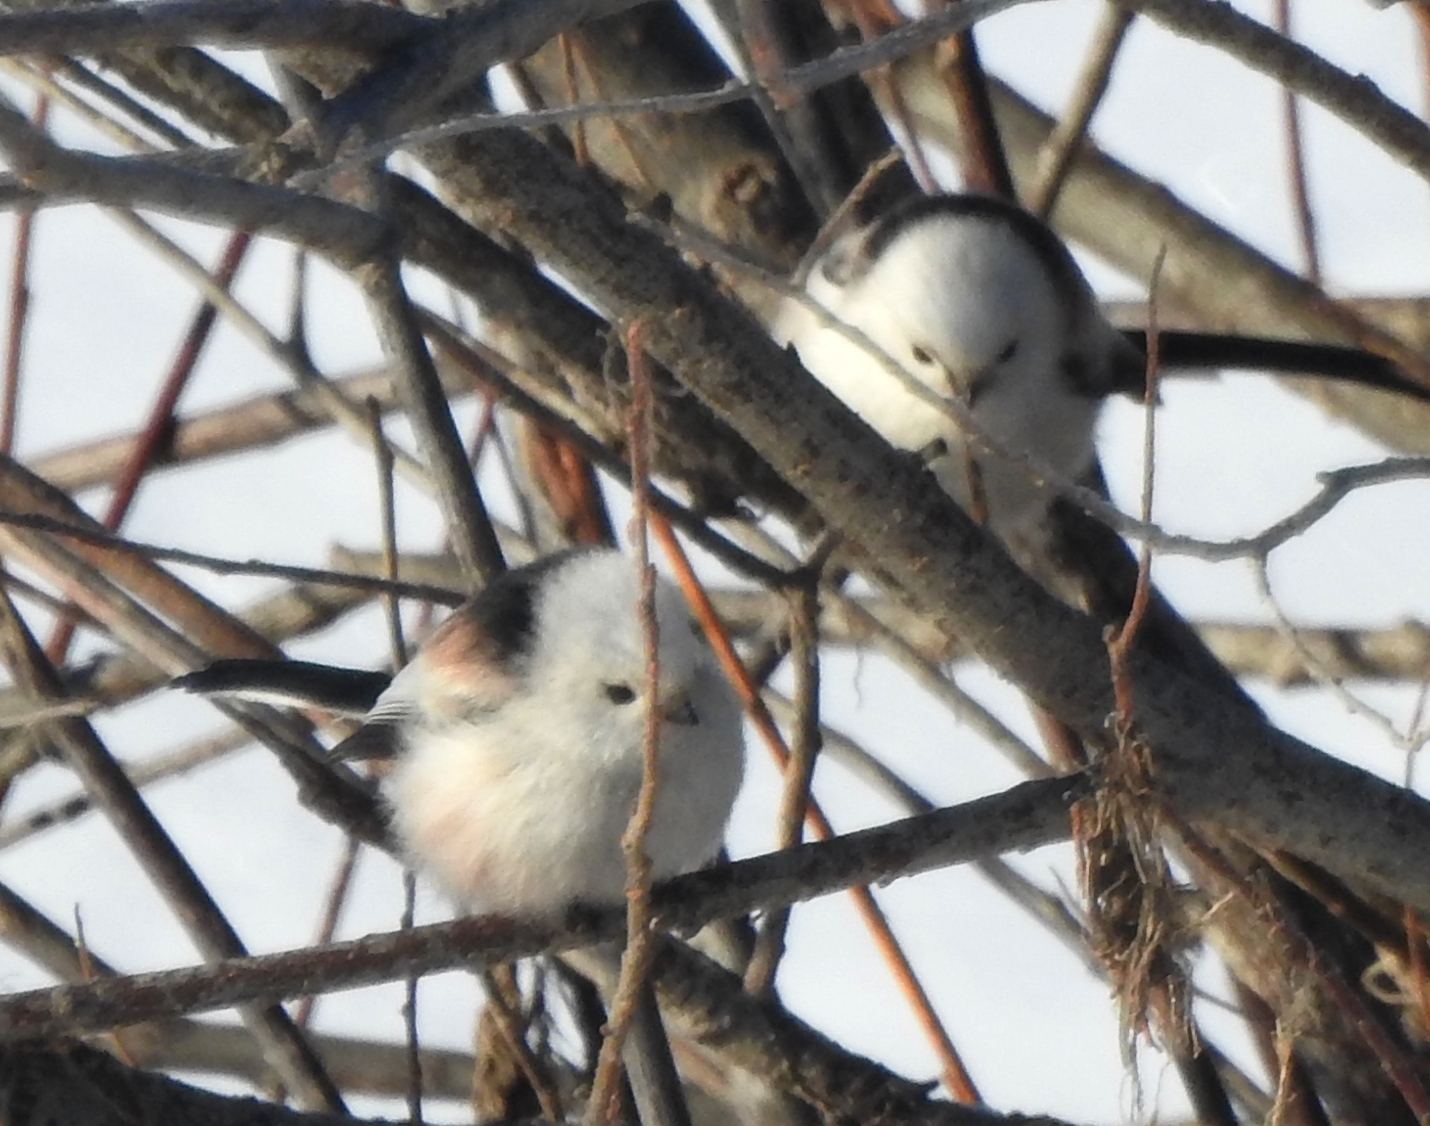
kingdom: Animalia
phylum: Chordata
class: Aves
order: Passeriformes
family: Aegithalidae
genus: Aegithalos
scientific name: Aegithalos caudatus
